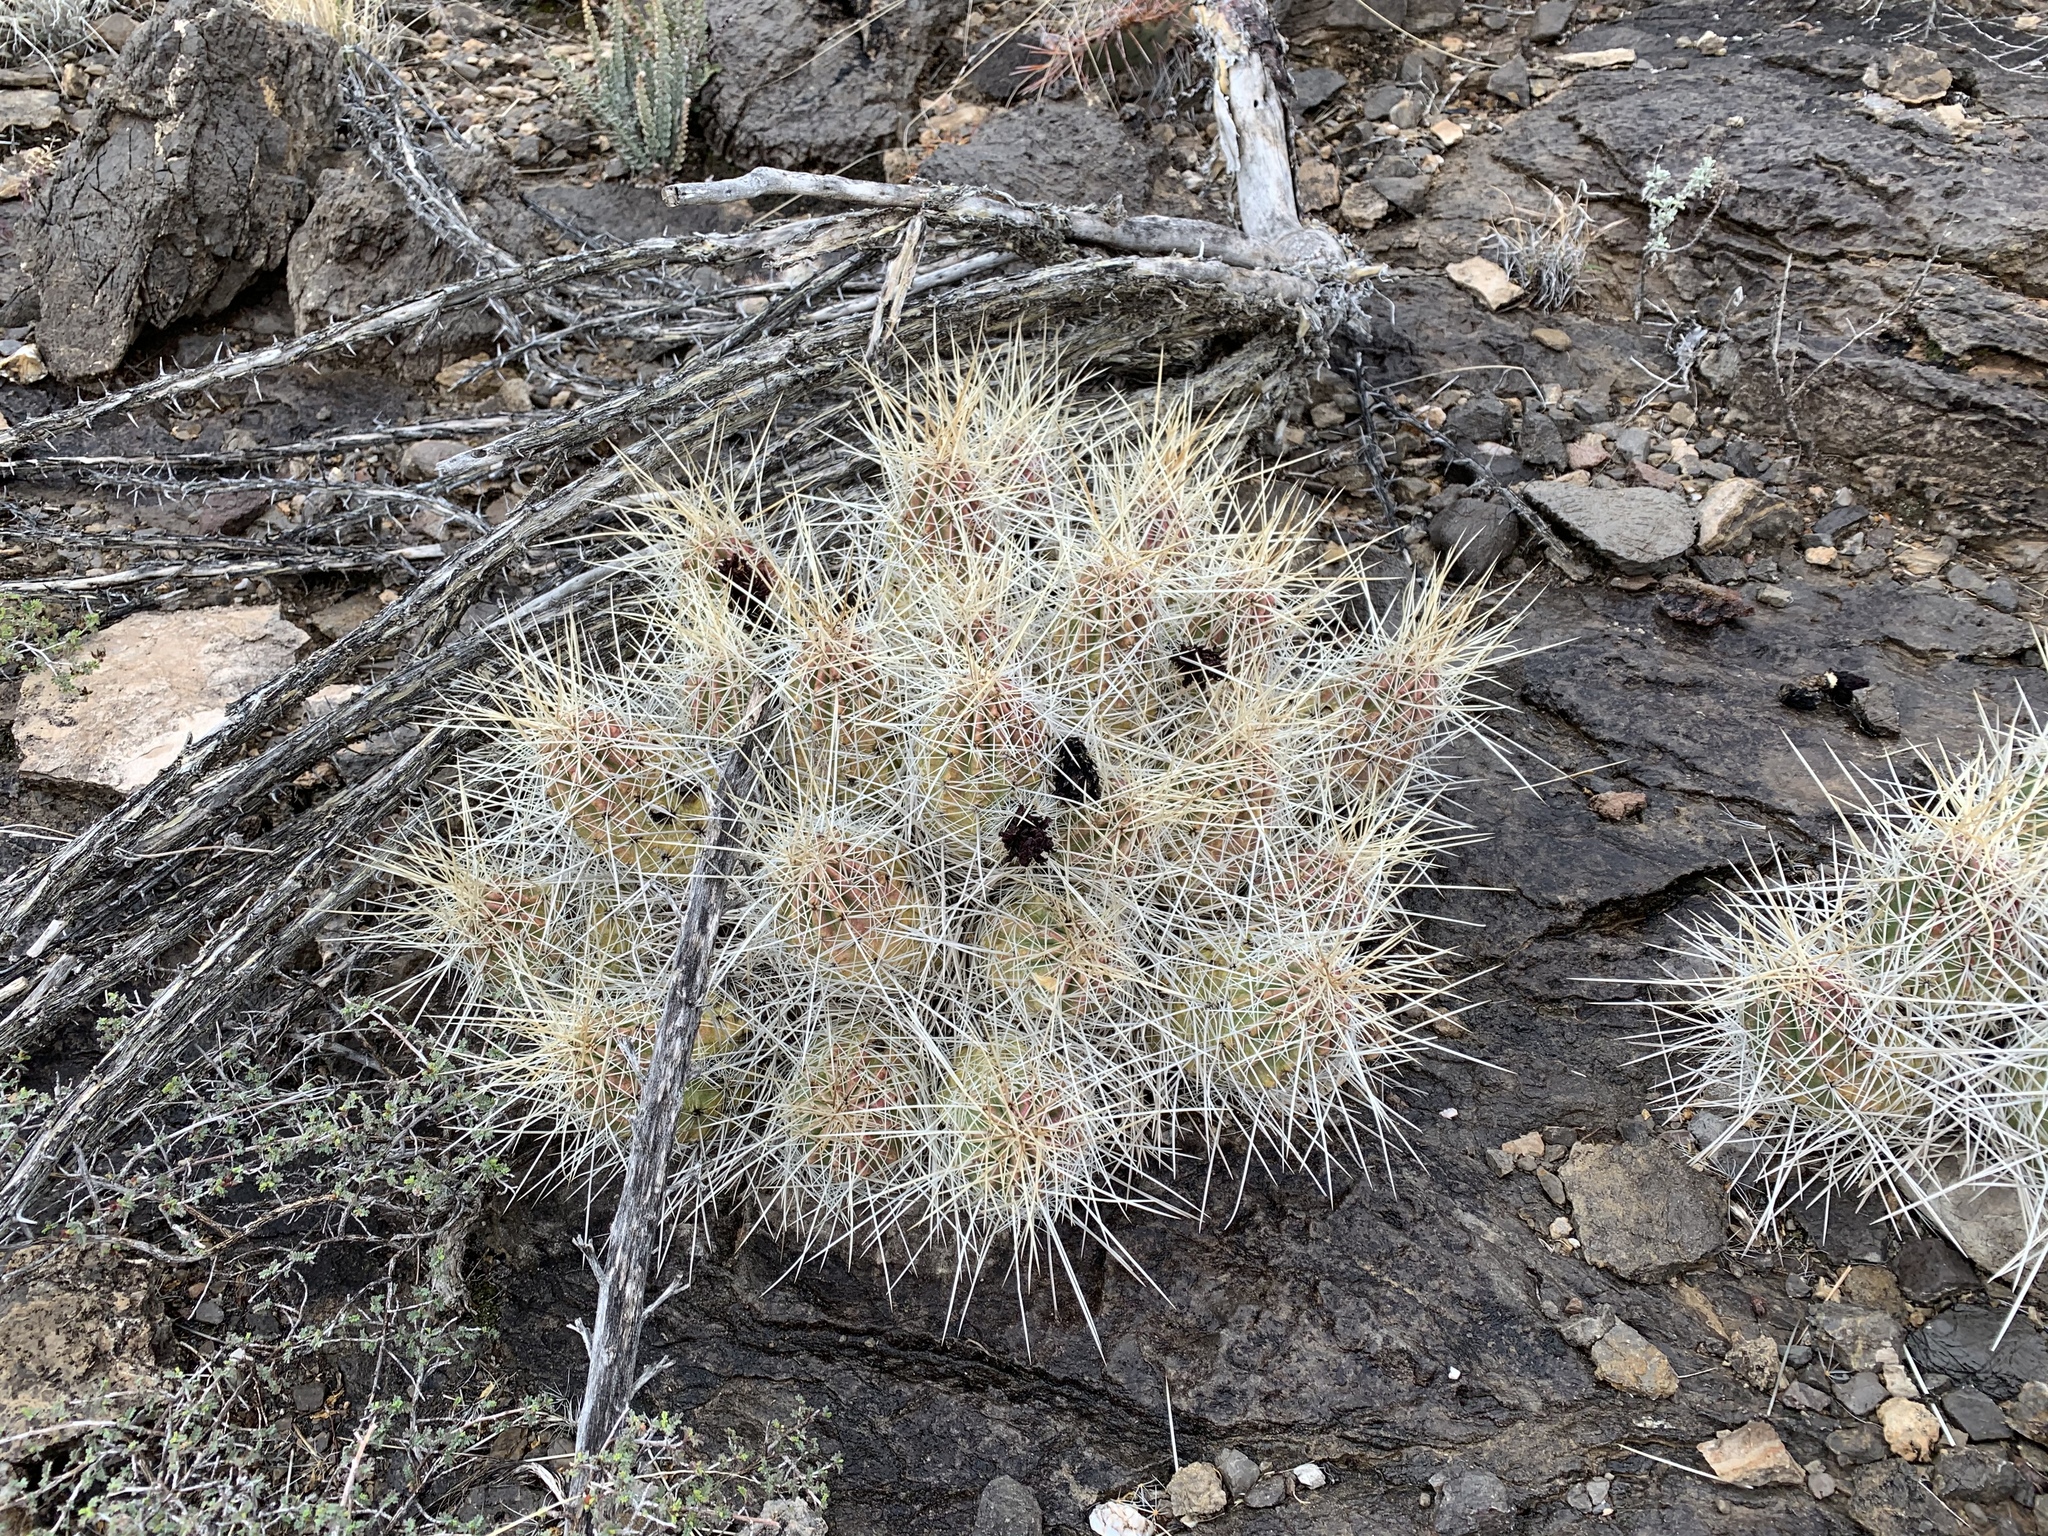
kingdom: Plantae
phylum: Tracheophyta
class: Magnoliopsida
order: Caryophyllales
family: Cactaceae
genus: Echinocereus
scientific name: Echinocereus stramineus
